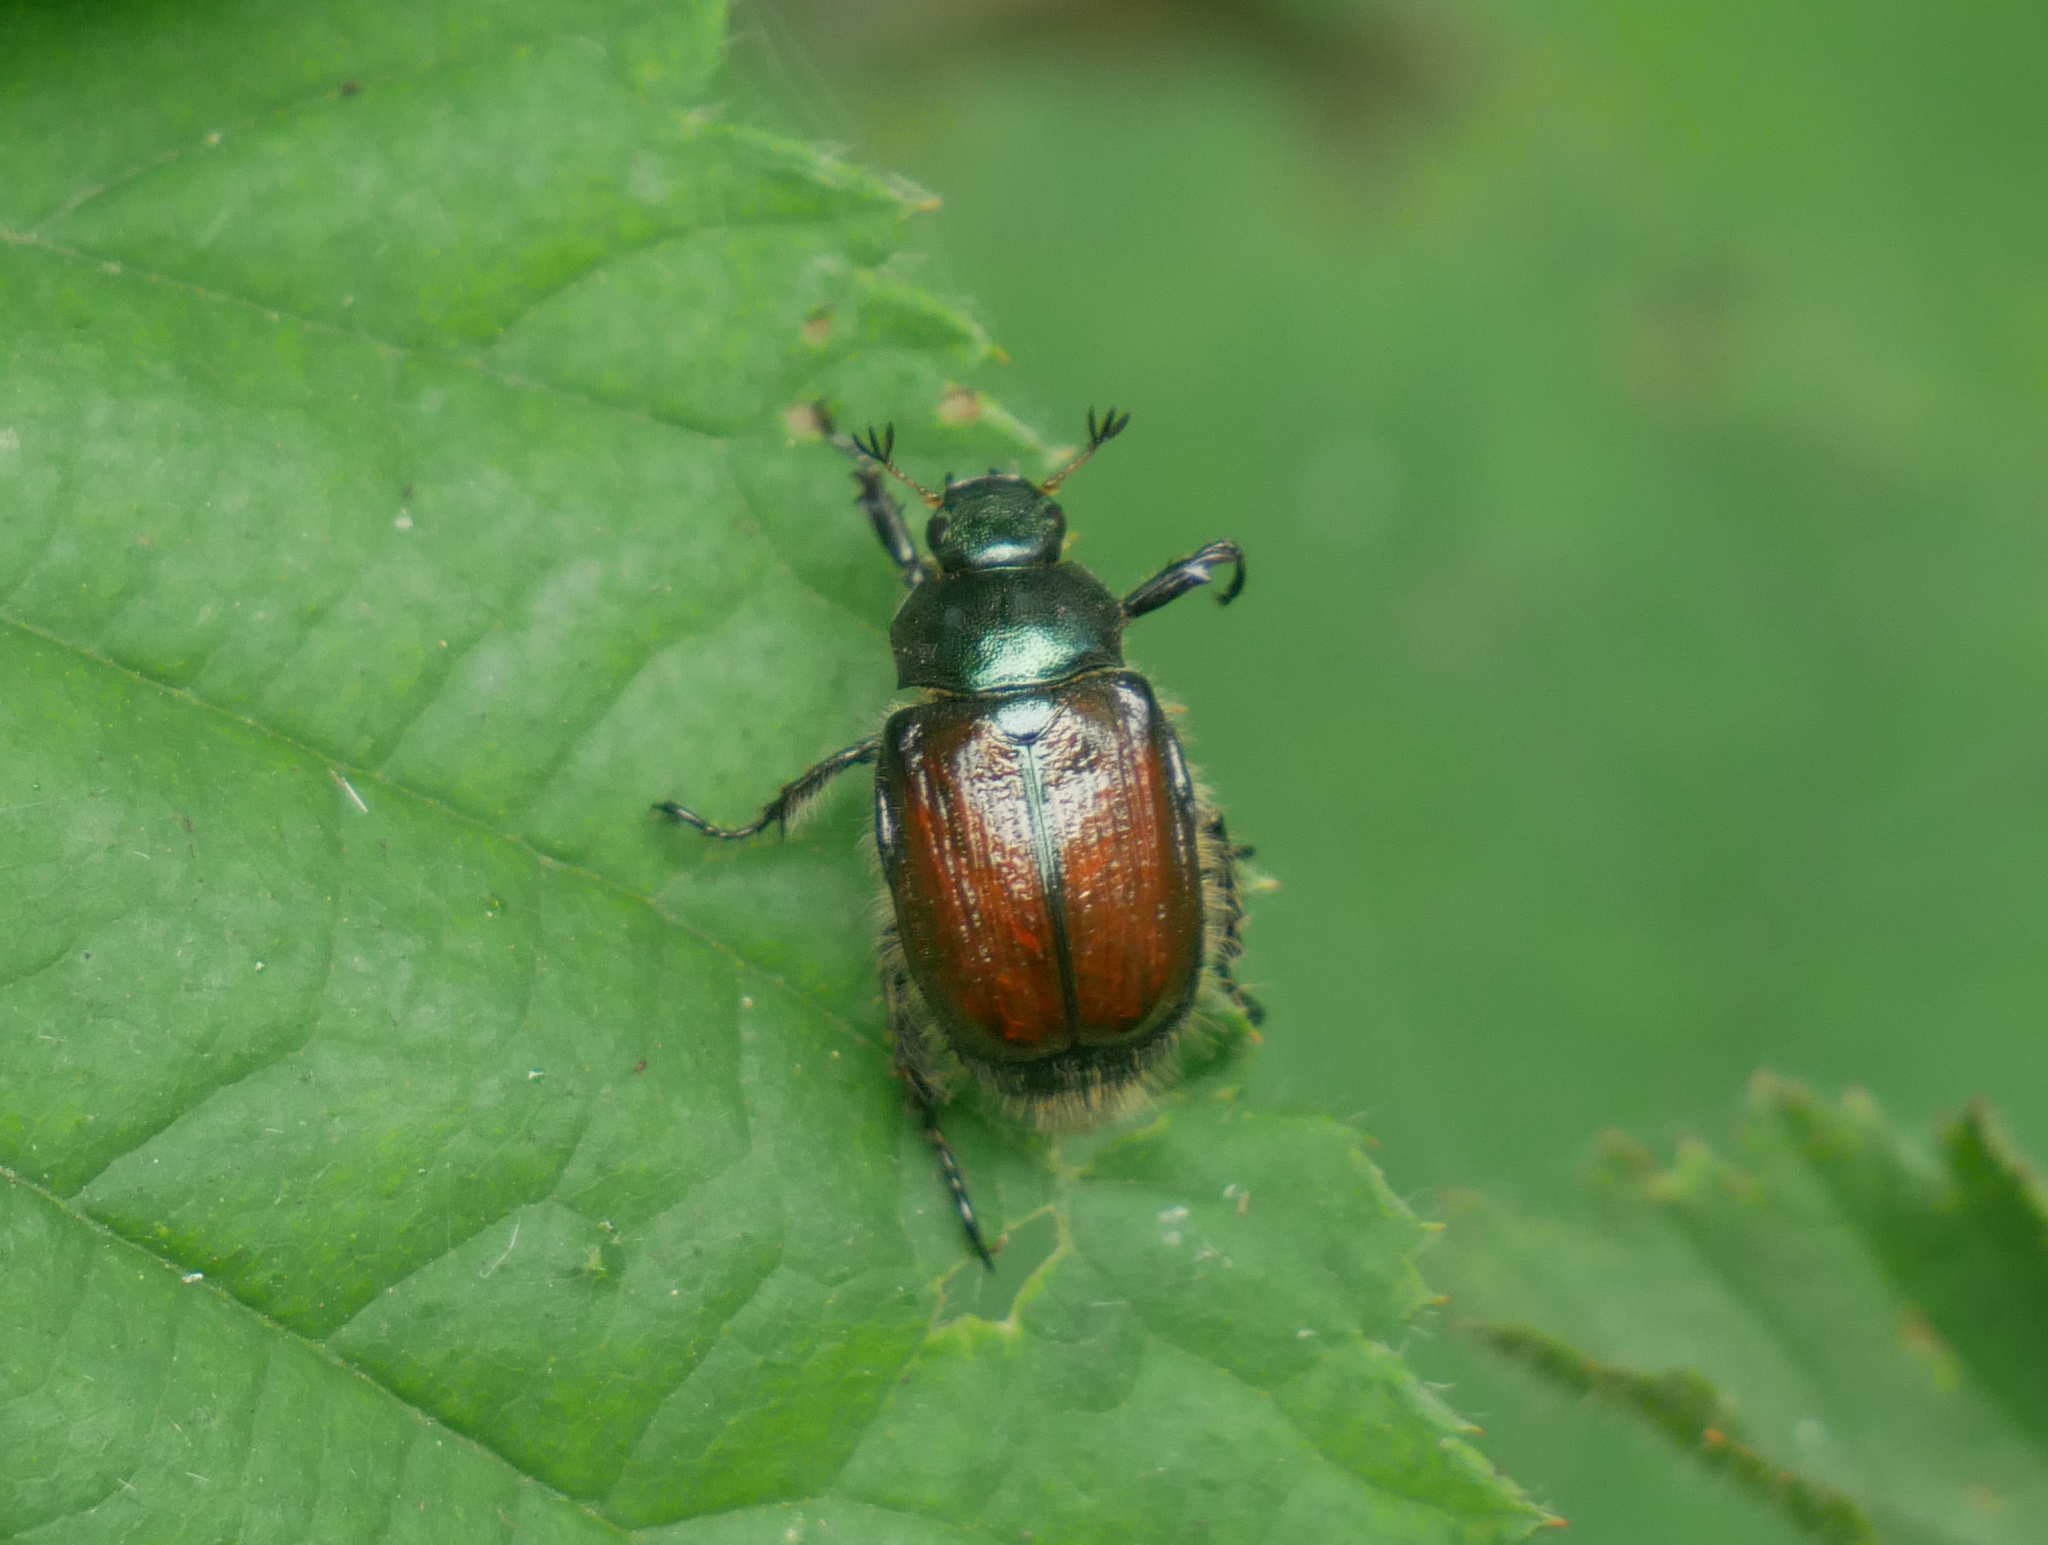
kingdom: Animalia
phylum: Arthropoda
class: Insecta
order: Coleoptera
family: Scarabaeidae
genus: Phyllopertha
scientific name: Phyllopertha horticola
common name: Garden chafer
